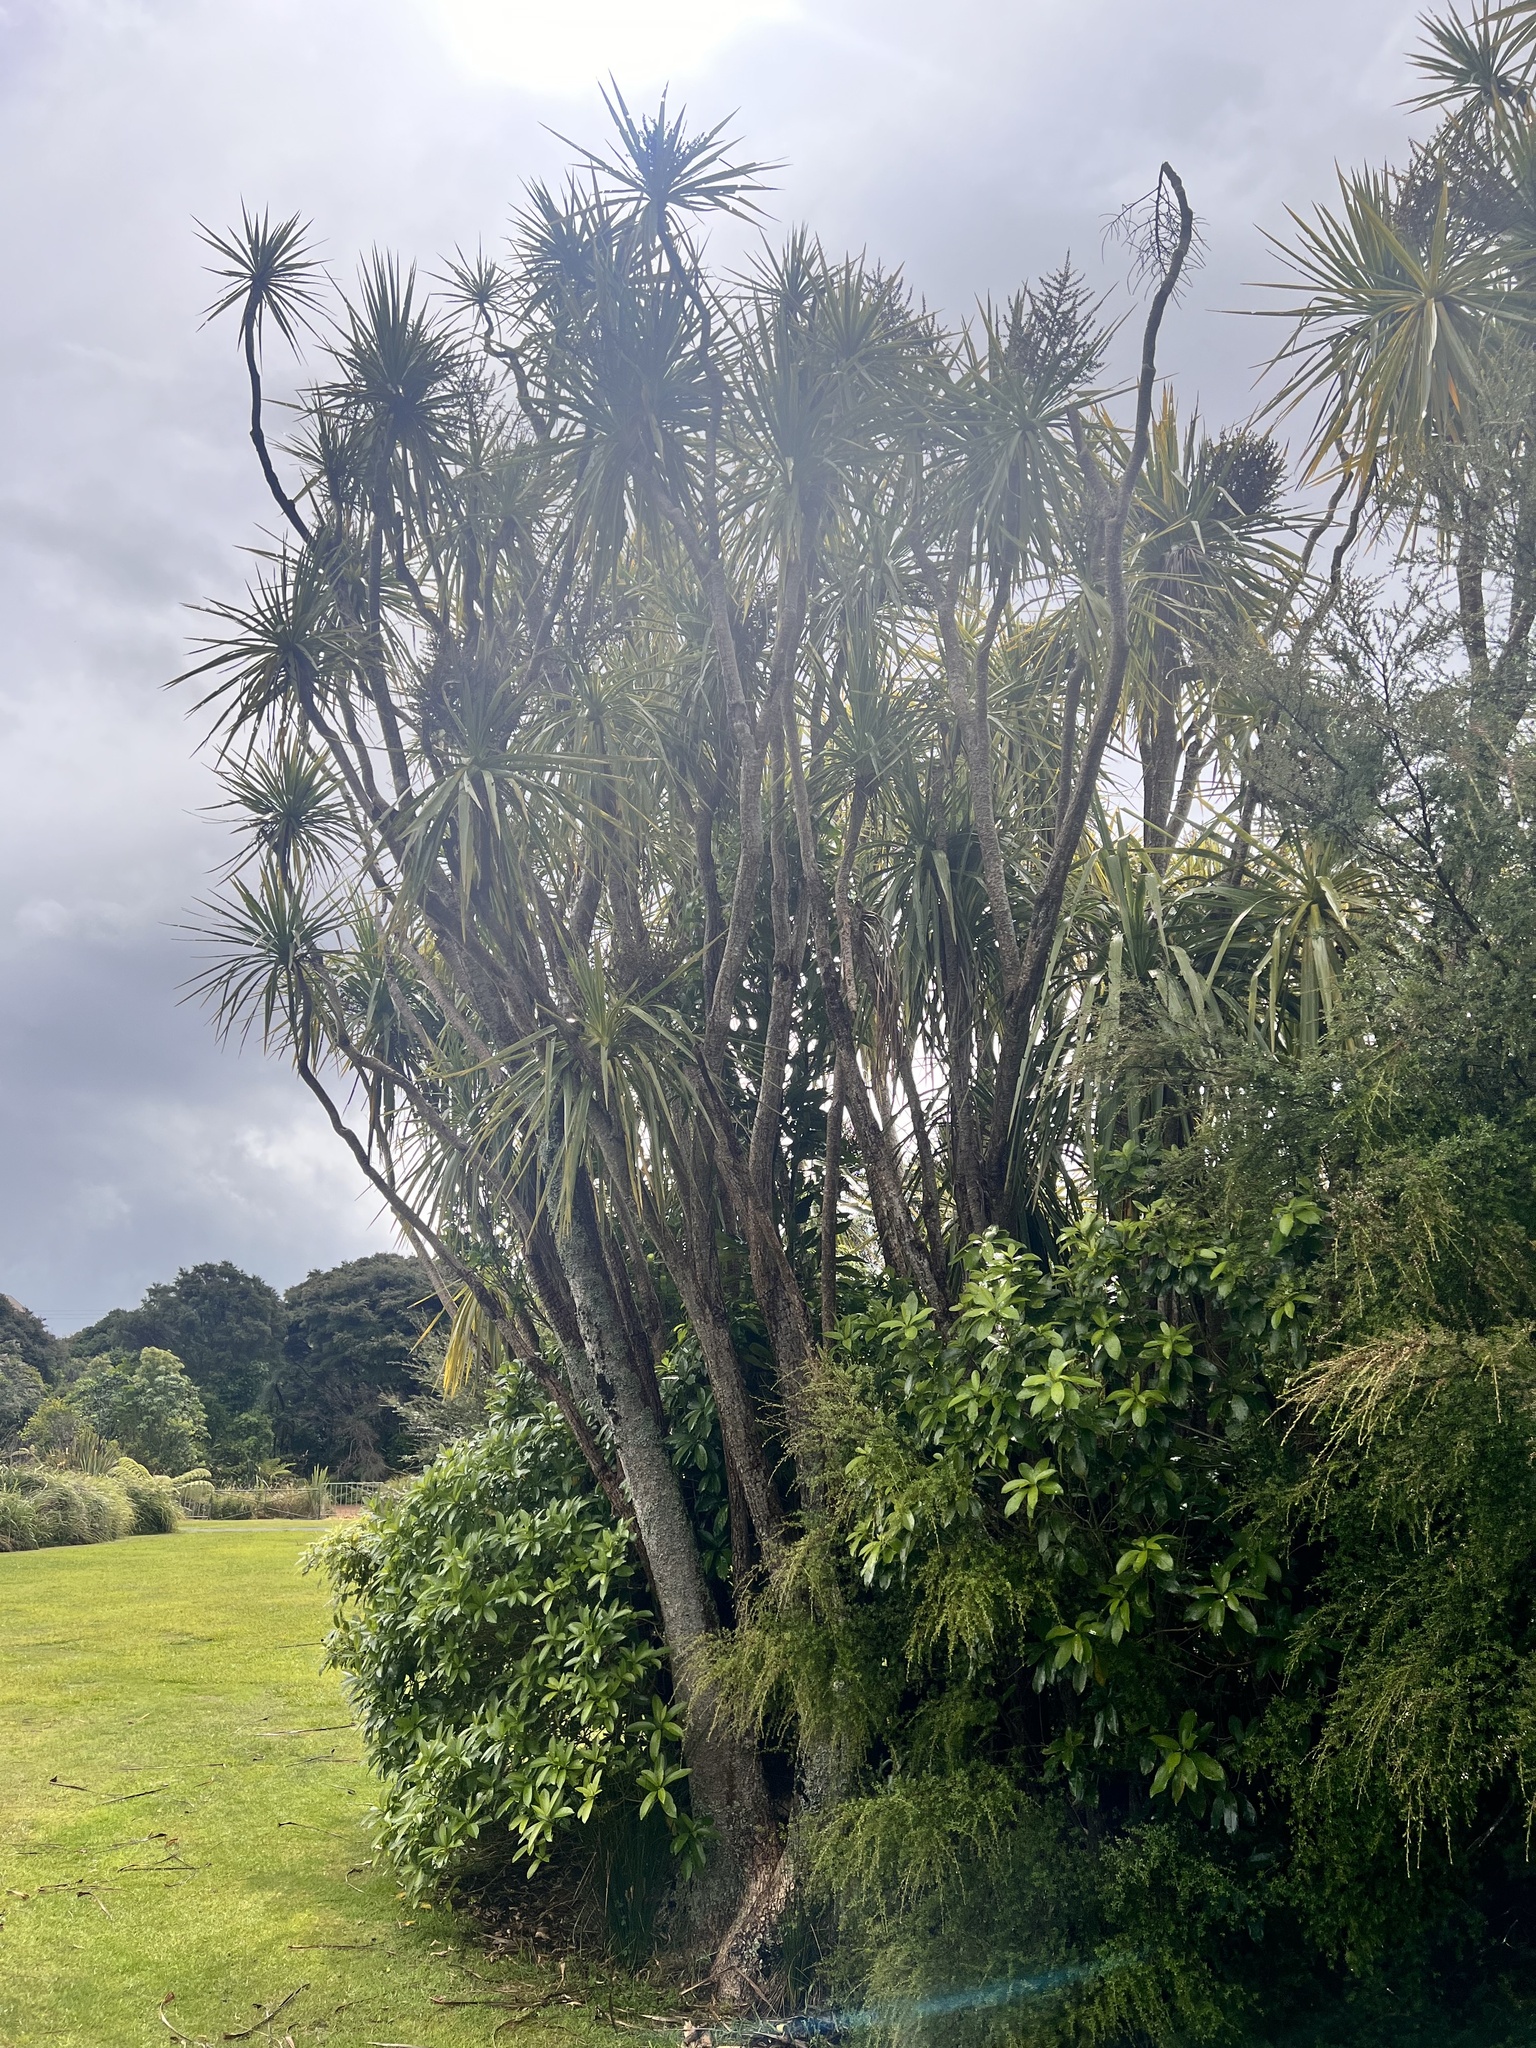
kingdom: Plantae
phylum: Tracheophyta
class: Liliopsida
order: Asparagales
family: Asparagaceae
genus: Cordyline
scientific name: Cordyline australis
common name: Cabbage-palm
